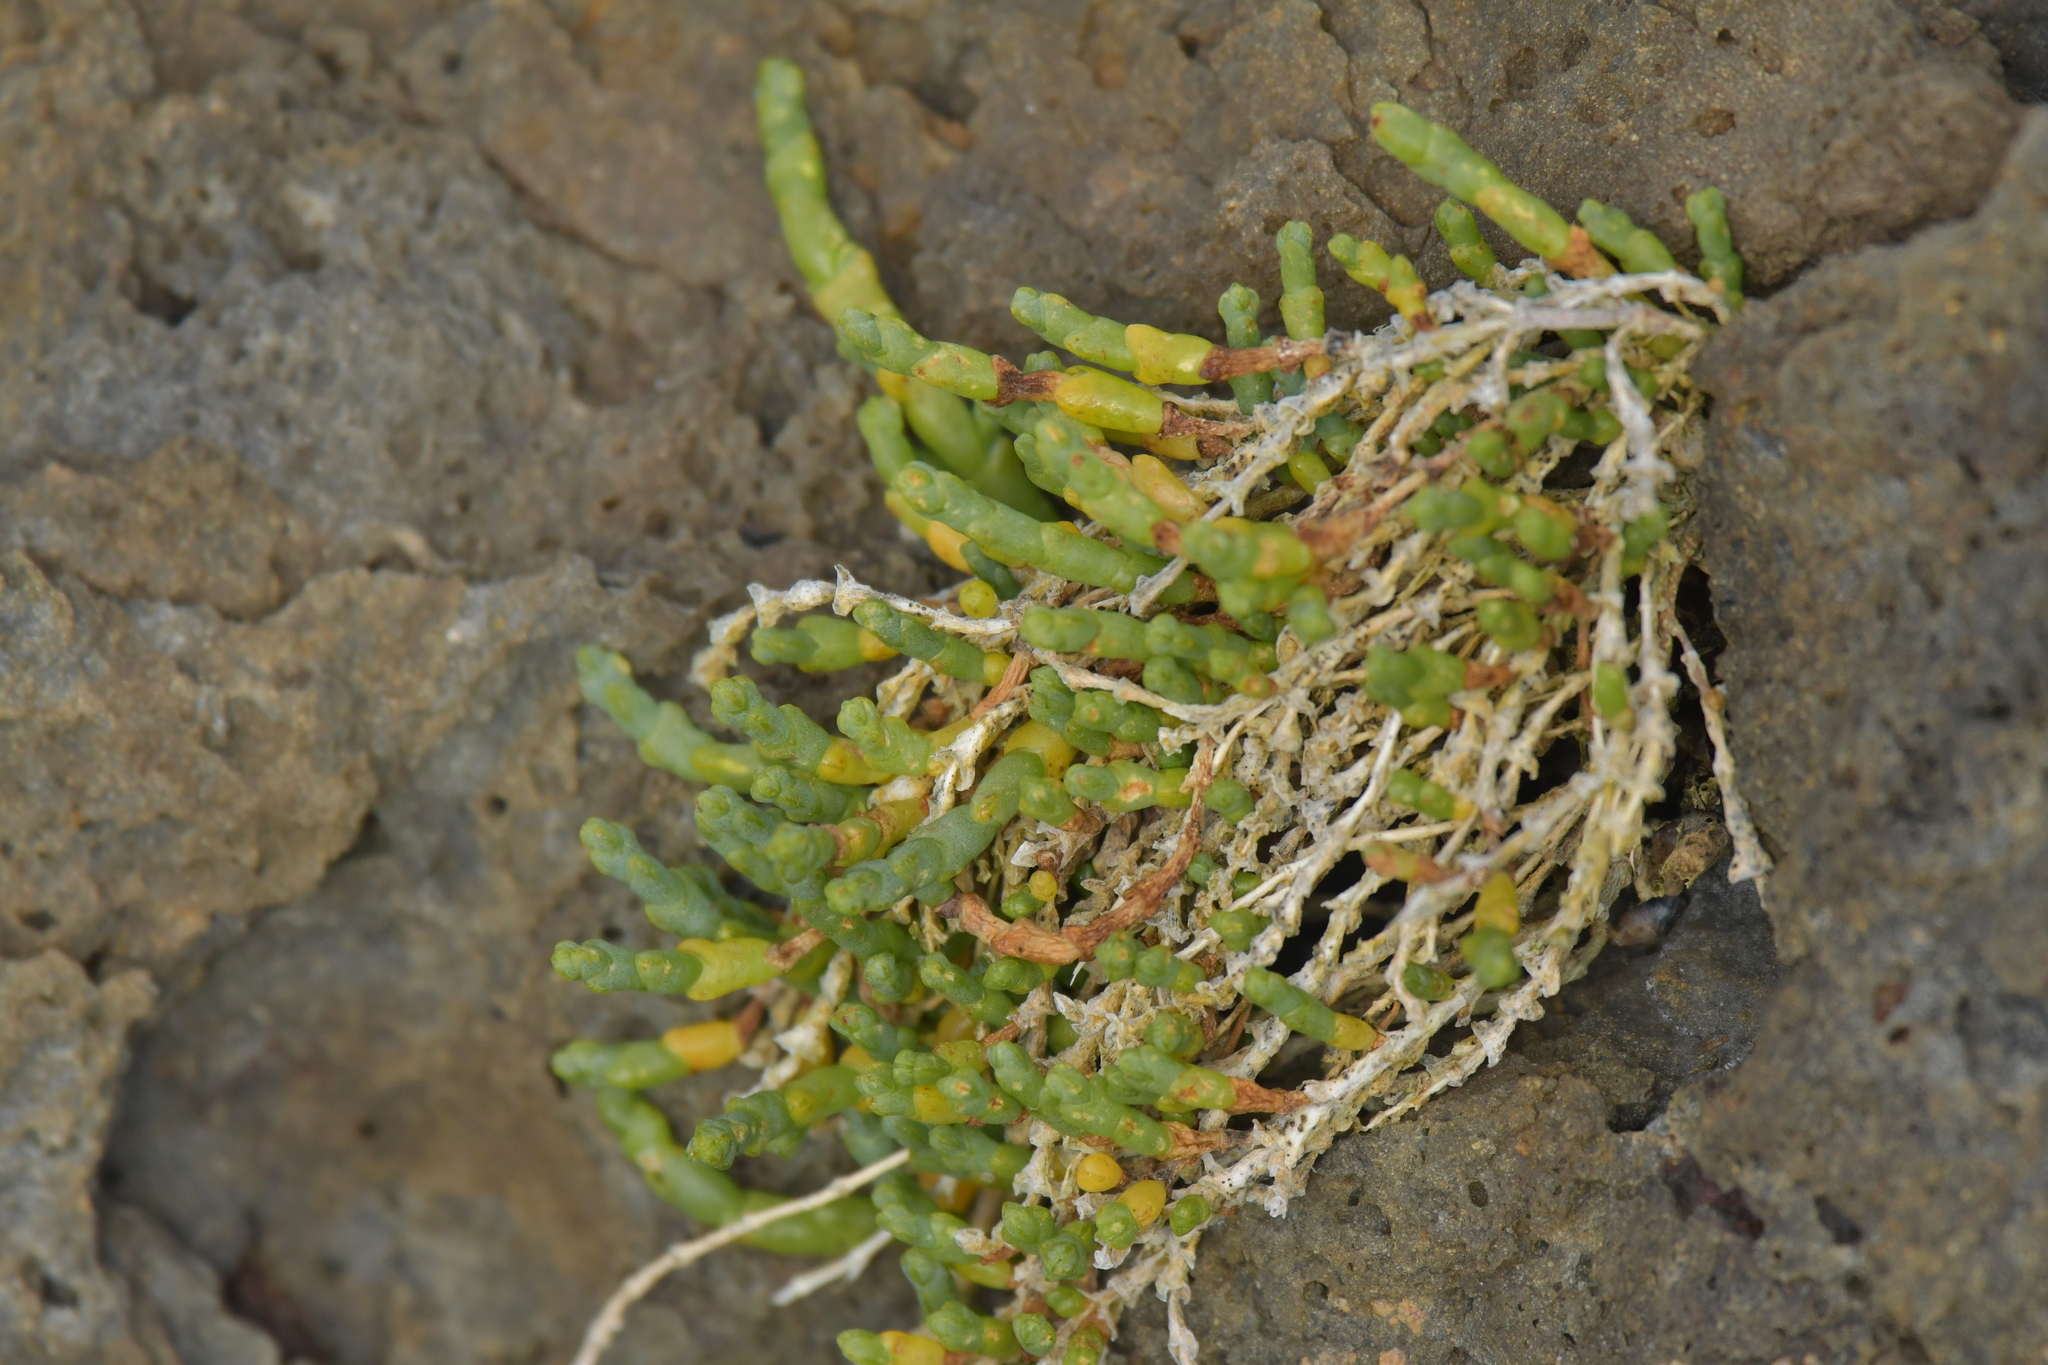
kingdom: Plantae
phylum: Tracheophyta
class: Magnoliopsida
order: Caryophyllales
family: Amaranthaceae
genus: Salicornia
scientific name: Salicornia quinqueflora
